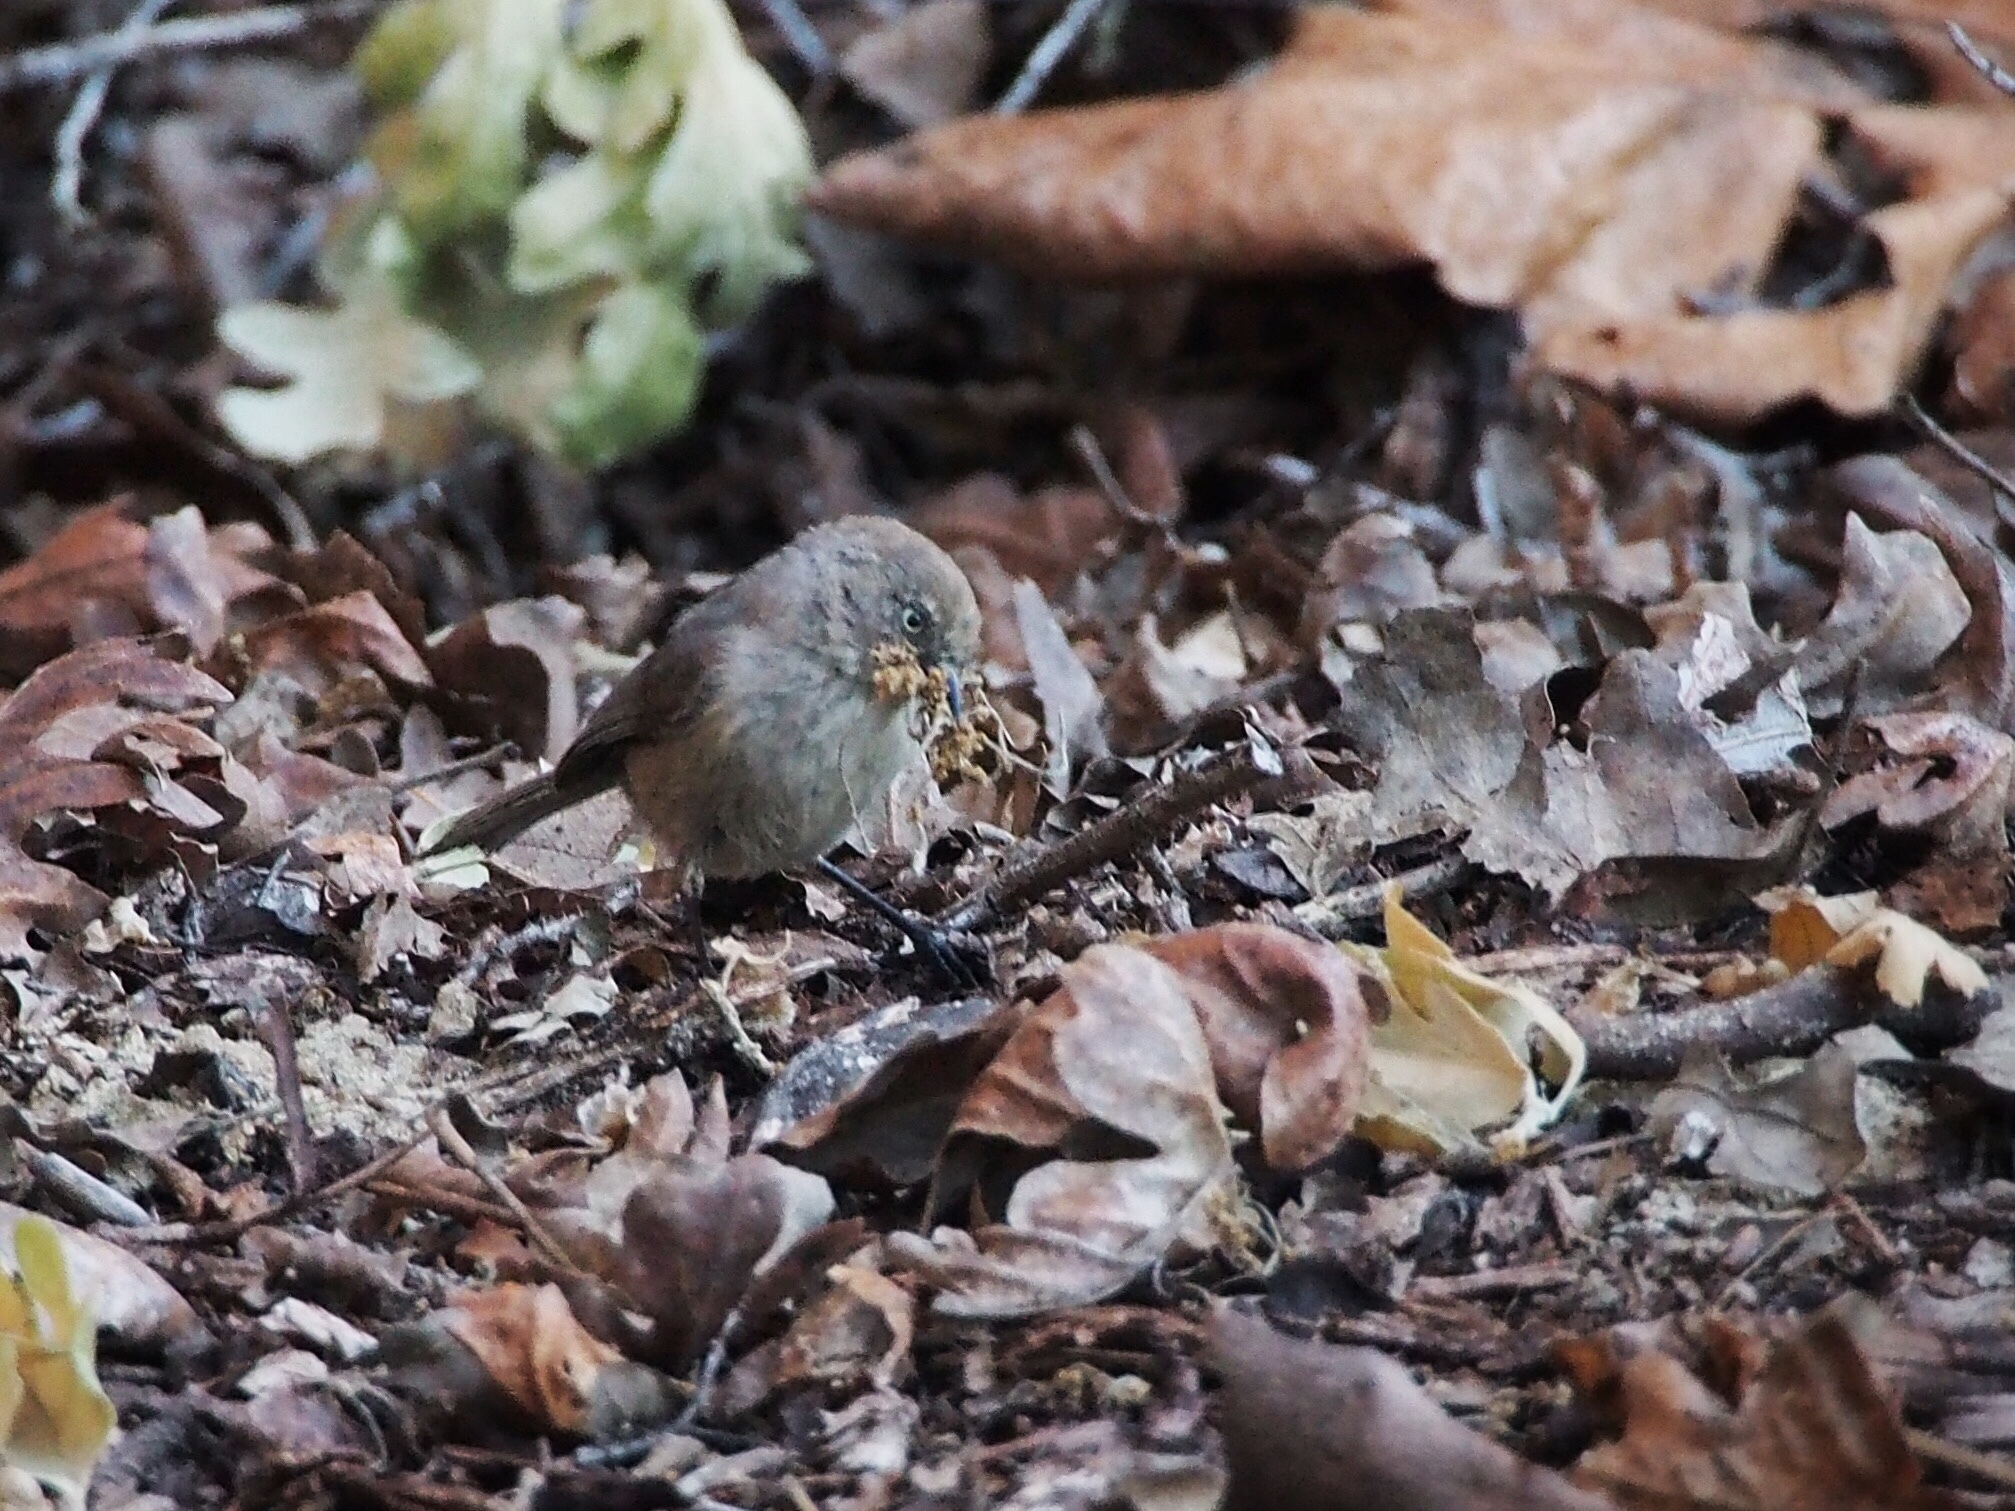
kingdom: Animalia
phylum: Chordata
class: Aves
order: Passeriformes
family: Aegithalidae
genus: Psaltriparus
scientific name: Psaltriparus minimus
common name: American bushtit
